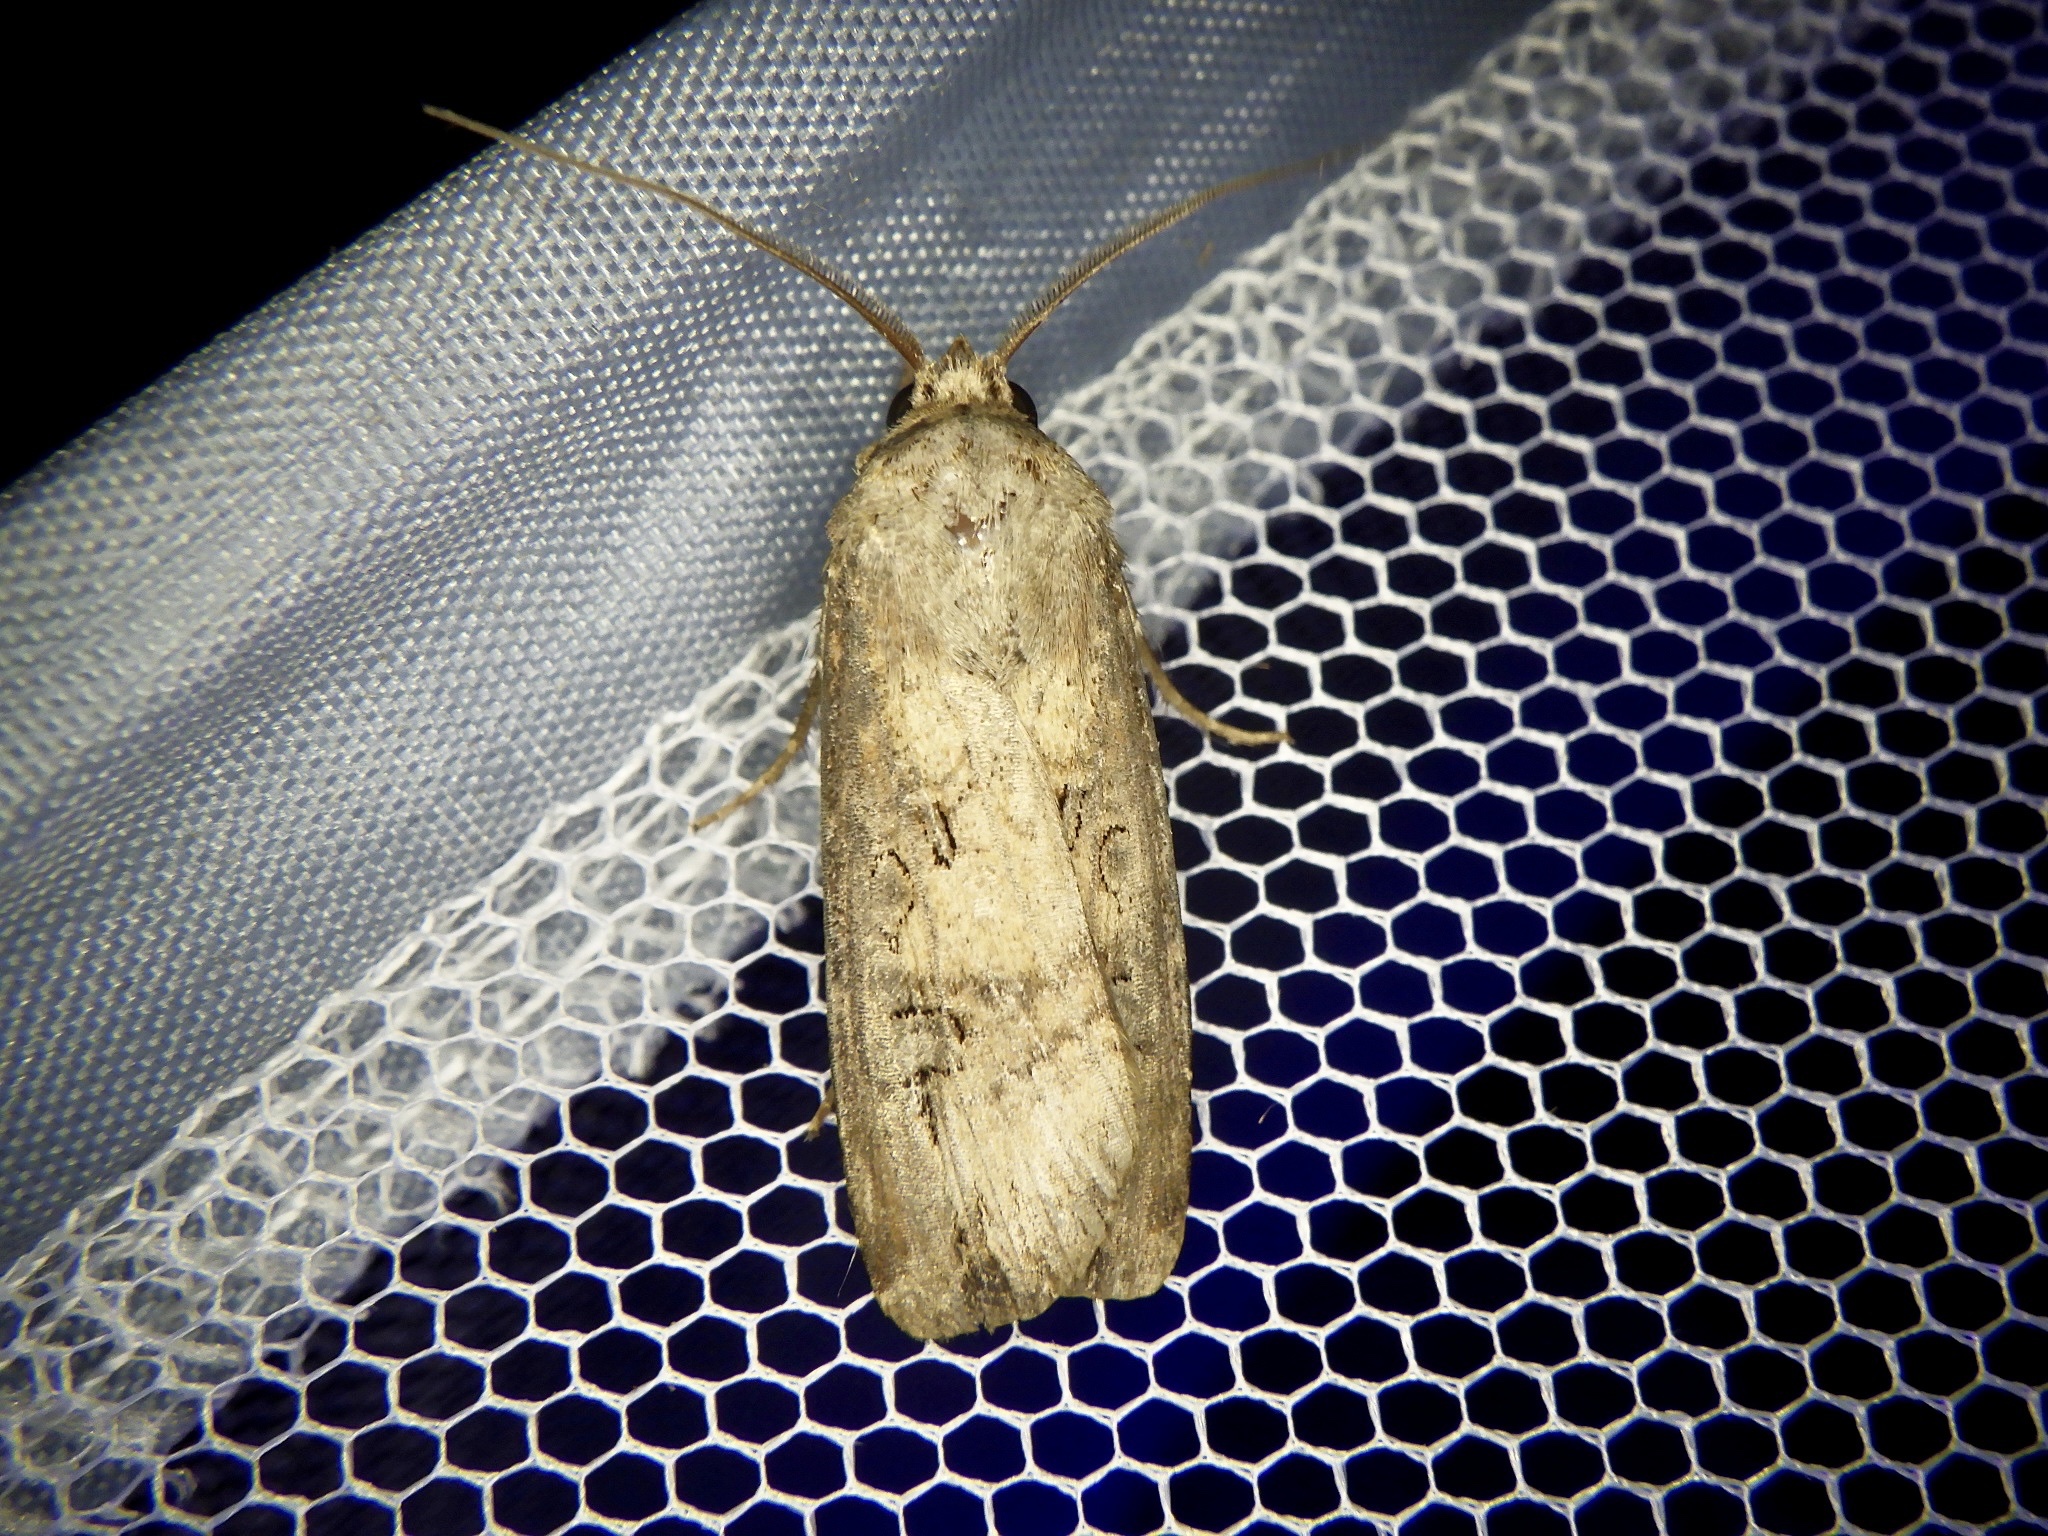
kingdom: Animalia
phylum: Arthropoda
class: Insecta
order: Lepidoptera
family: Noctuidae
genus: Agrotis
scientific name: Agrotis ipsilon
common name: Dark sword-grass
